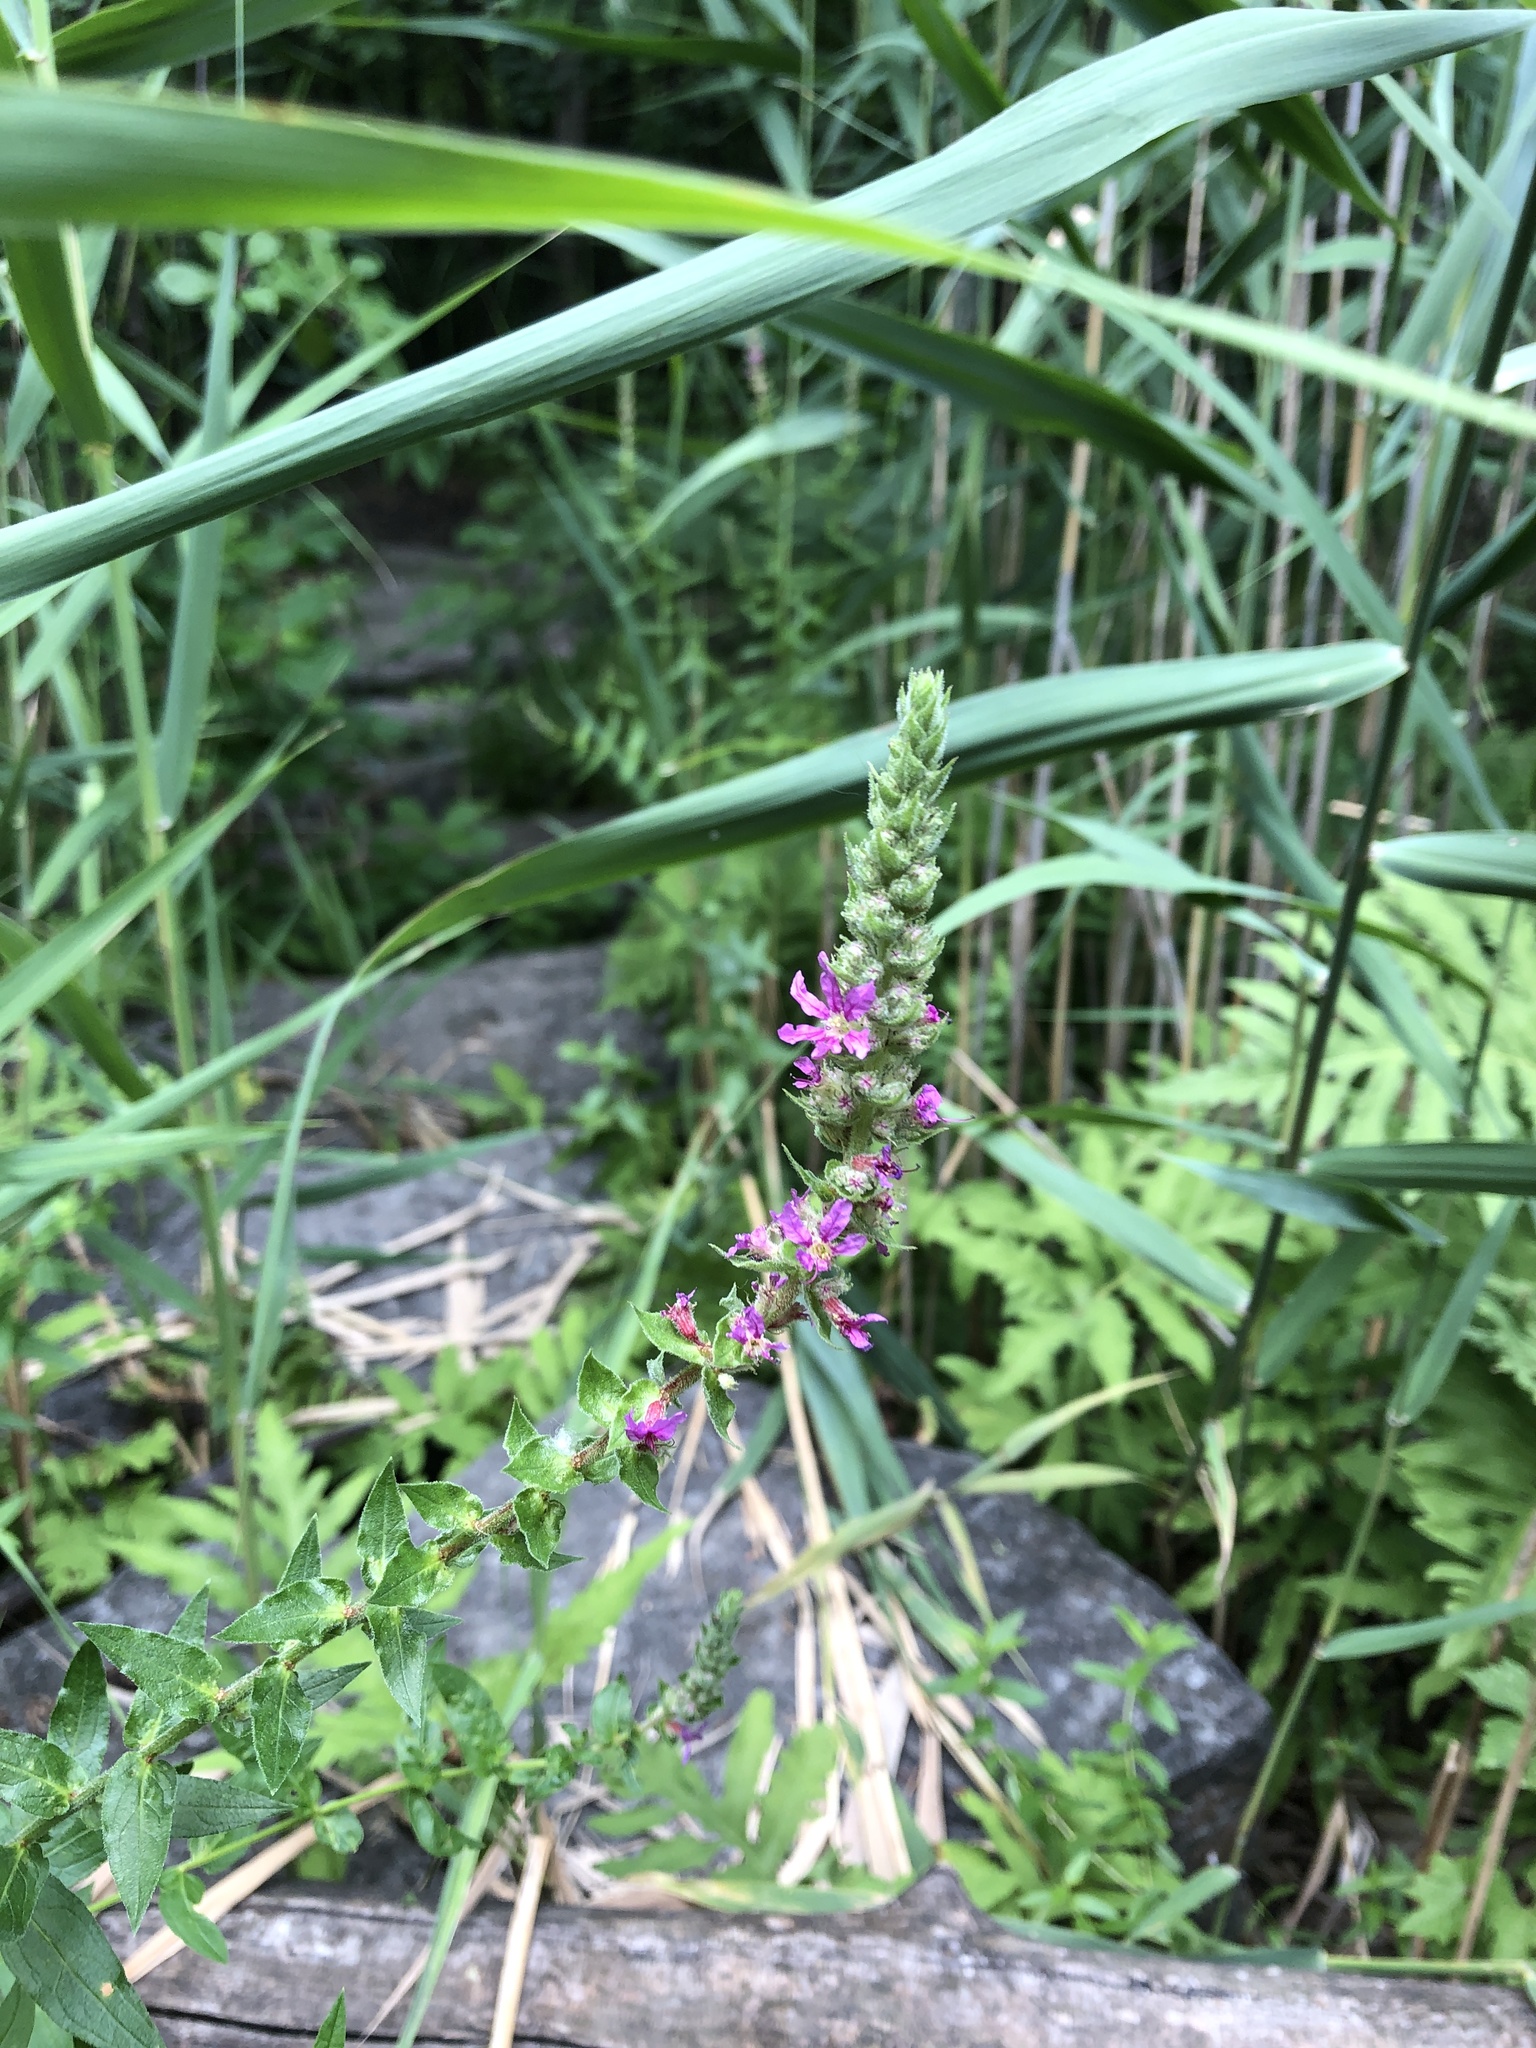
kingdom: Plantae
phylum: Tracheophyta
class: Magnoliopsida
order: Myrtales
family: Lythraceae
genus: Lythrum
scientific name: Lythrum salicaria
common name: Purple loosestrife
